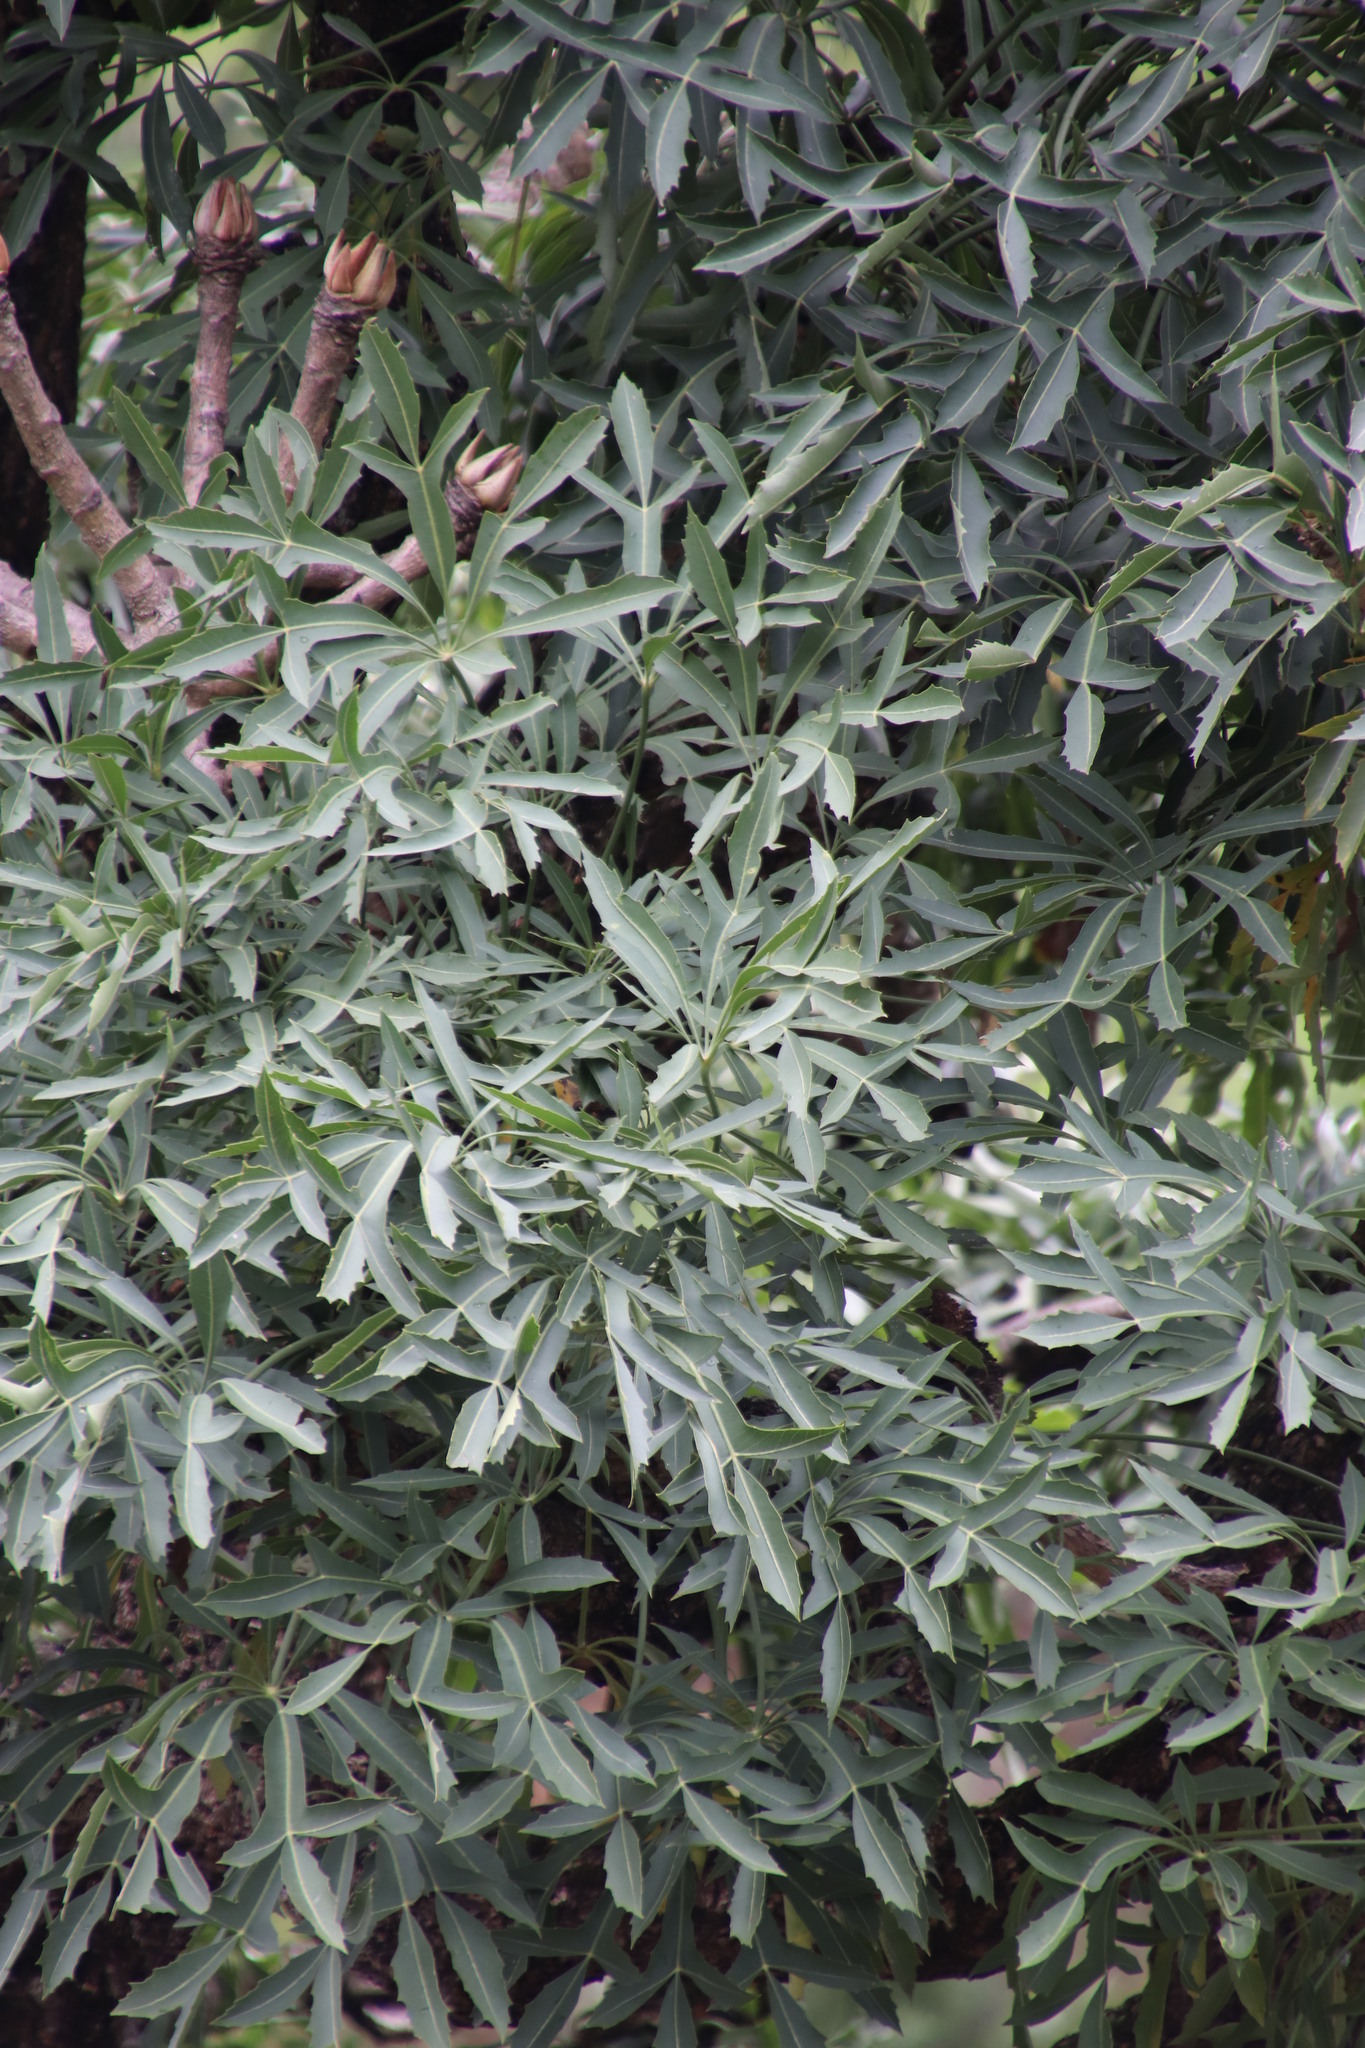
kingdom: Plantae
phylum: Tracheophyta
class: Magnoliopsida
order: Apiales
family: Araliaceae
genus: Cussonia
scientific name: Cussonia spicata
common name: Common cabbagetree
